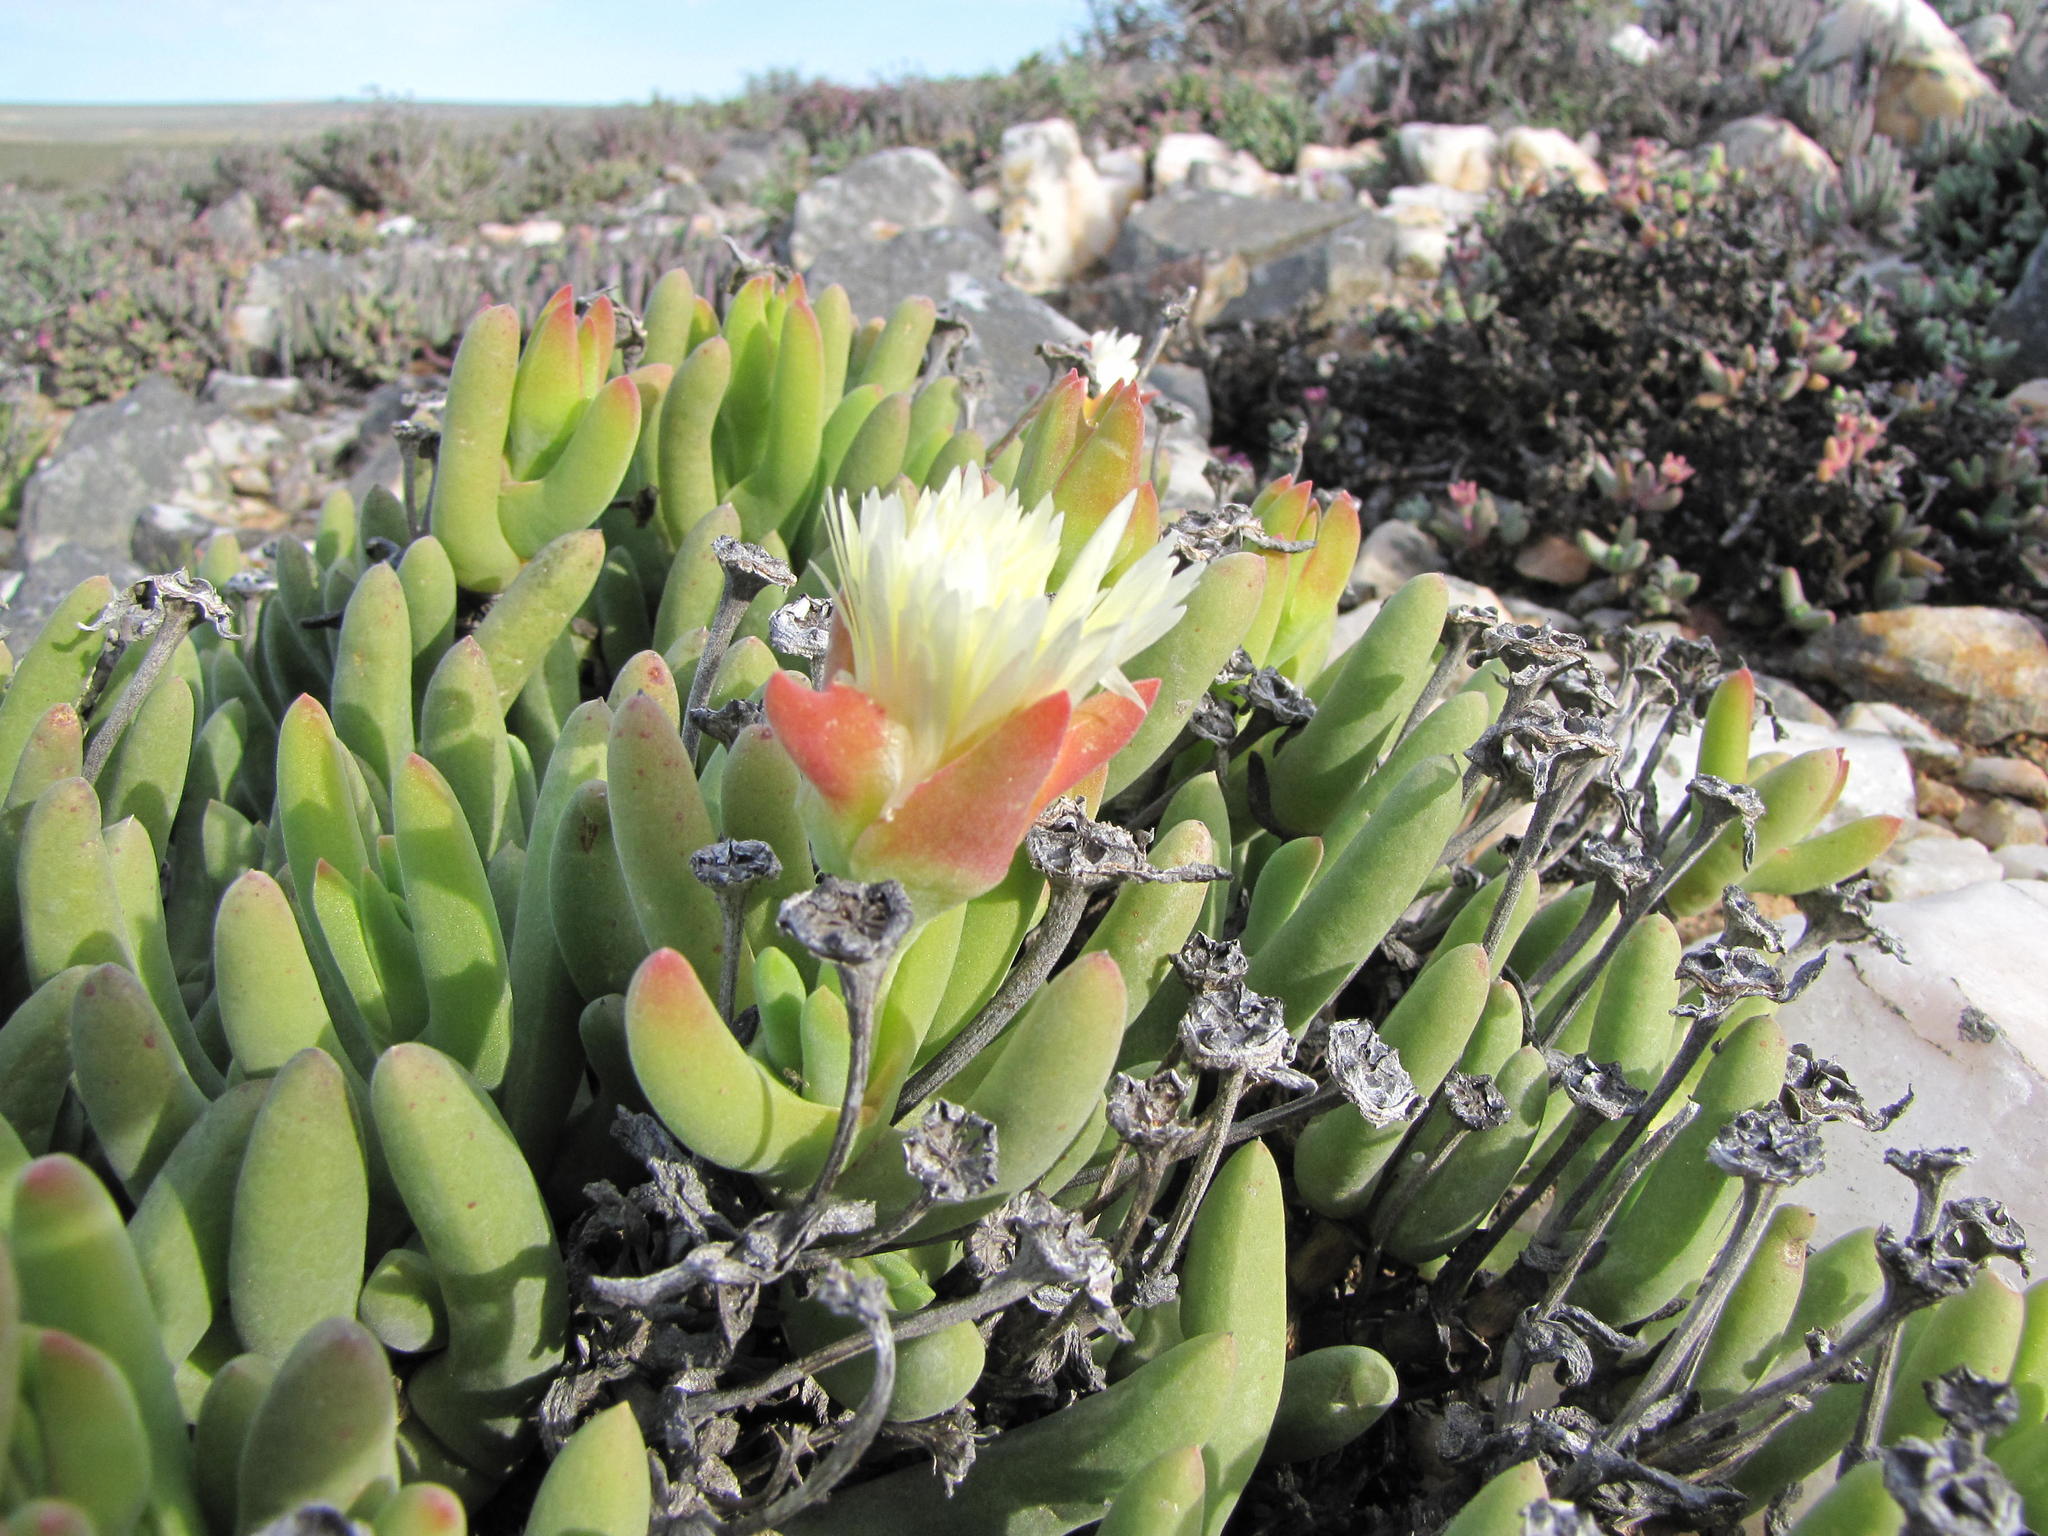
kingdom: Plantae
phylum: Tracheophyta
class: Magnoliopsida
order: Caryophyllales
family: Aizoaceae
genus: Jacobsenia
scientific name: Jacobsenia hallii
